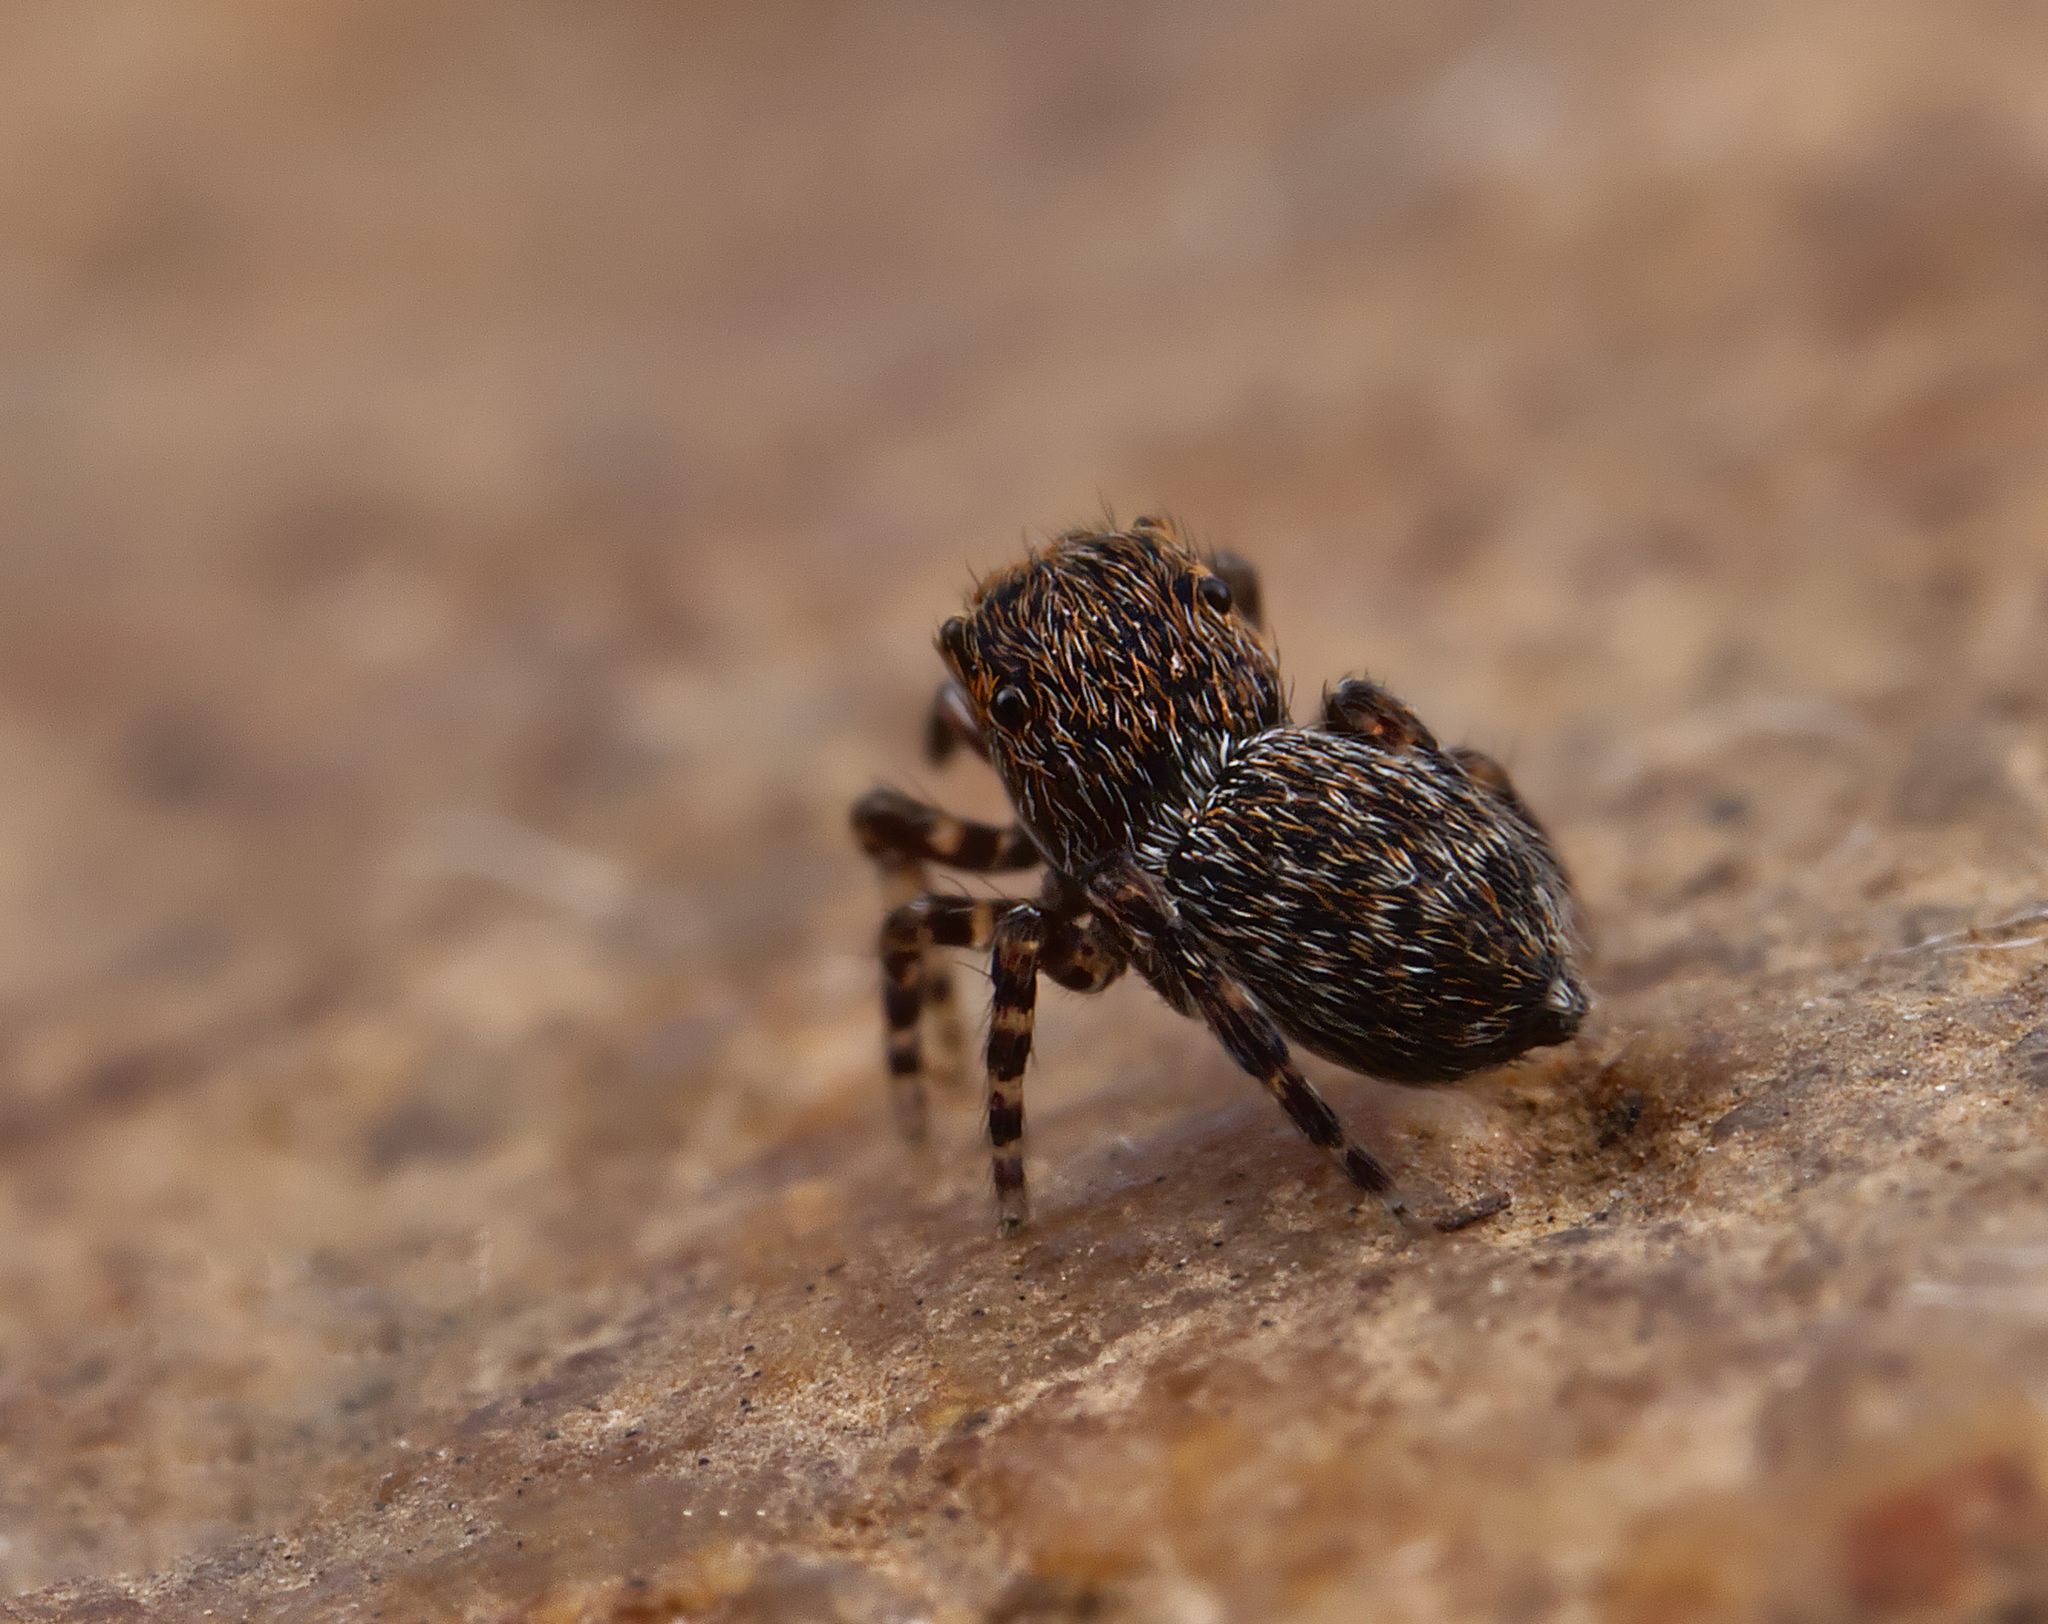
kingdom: Animalia
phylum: Arthropoda
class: Arachnida
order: Araneae
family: Salticidae
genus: Attinella
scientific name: Attinella concolor
